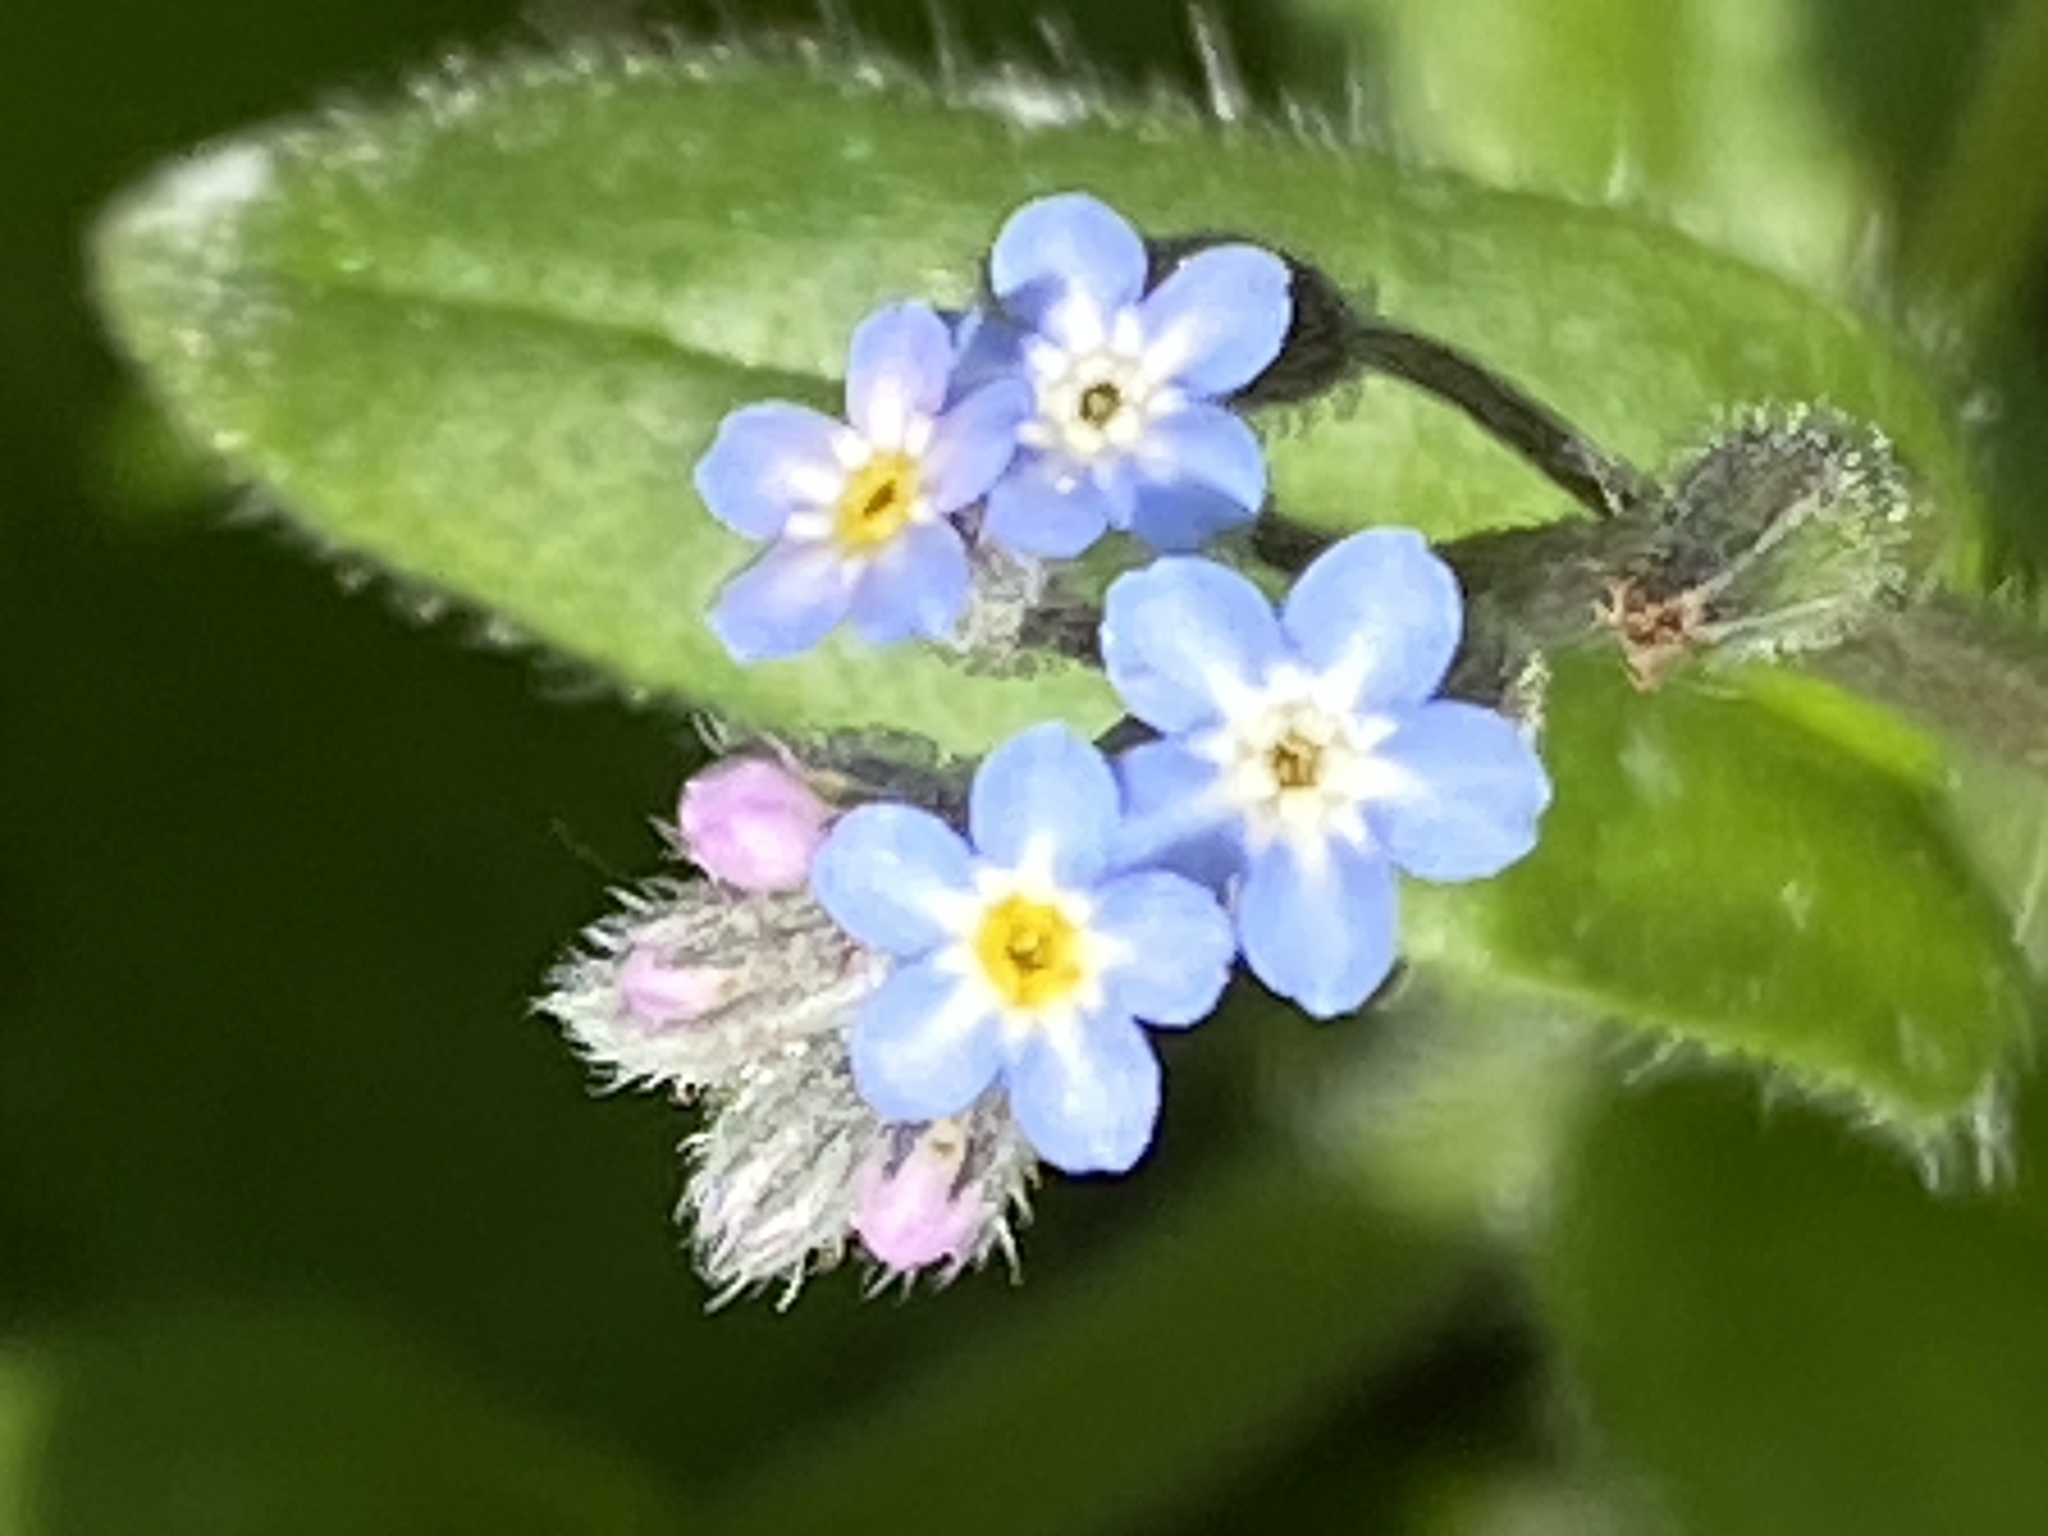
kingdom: Plantae
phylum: Tracheophyta
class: Magnoliopsida
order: Boraginales
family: Boraginaceae
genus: Myosotis
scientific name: Myosotis arvensis
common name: Field forget-me-not
